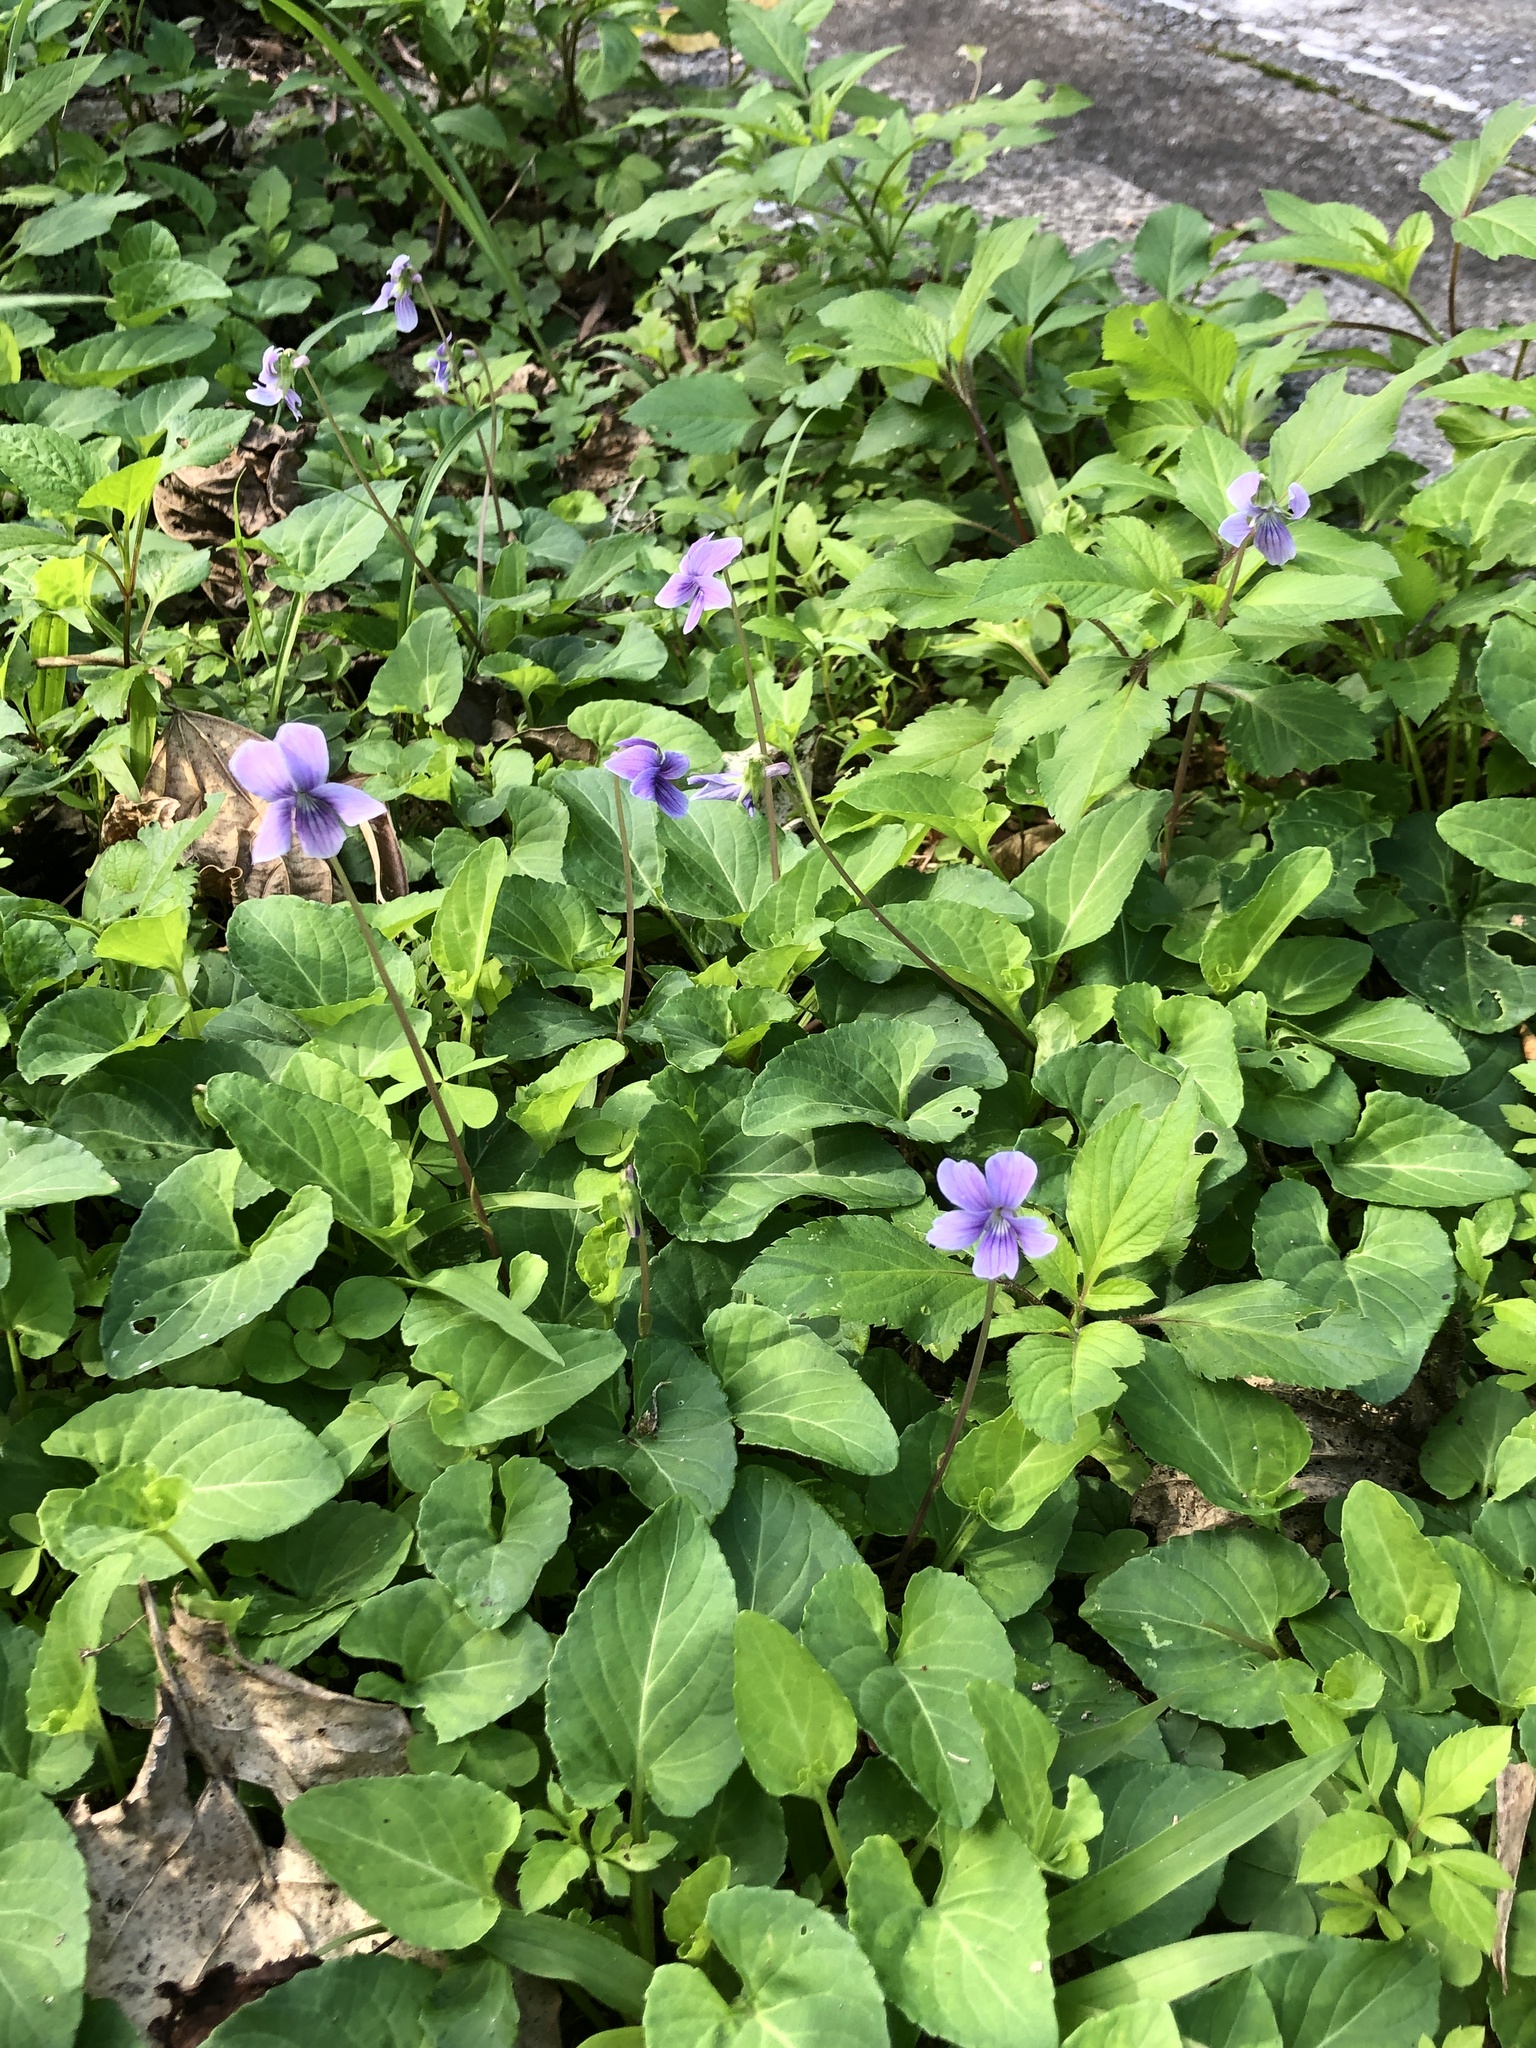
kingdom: Plantae
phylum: Tracheophyta
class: Magnoliopsida
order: Malpighiales
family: Violaceae
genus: Viola
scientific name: Viola philippica
